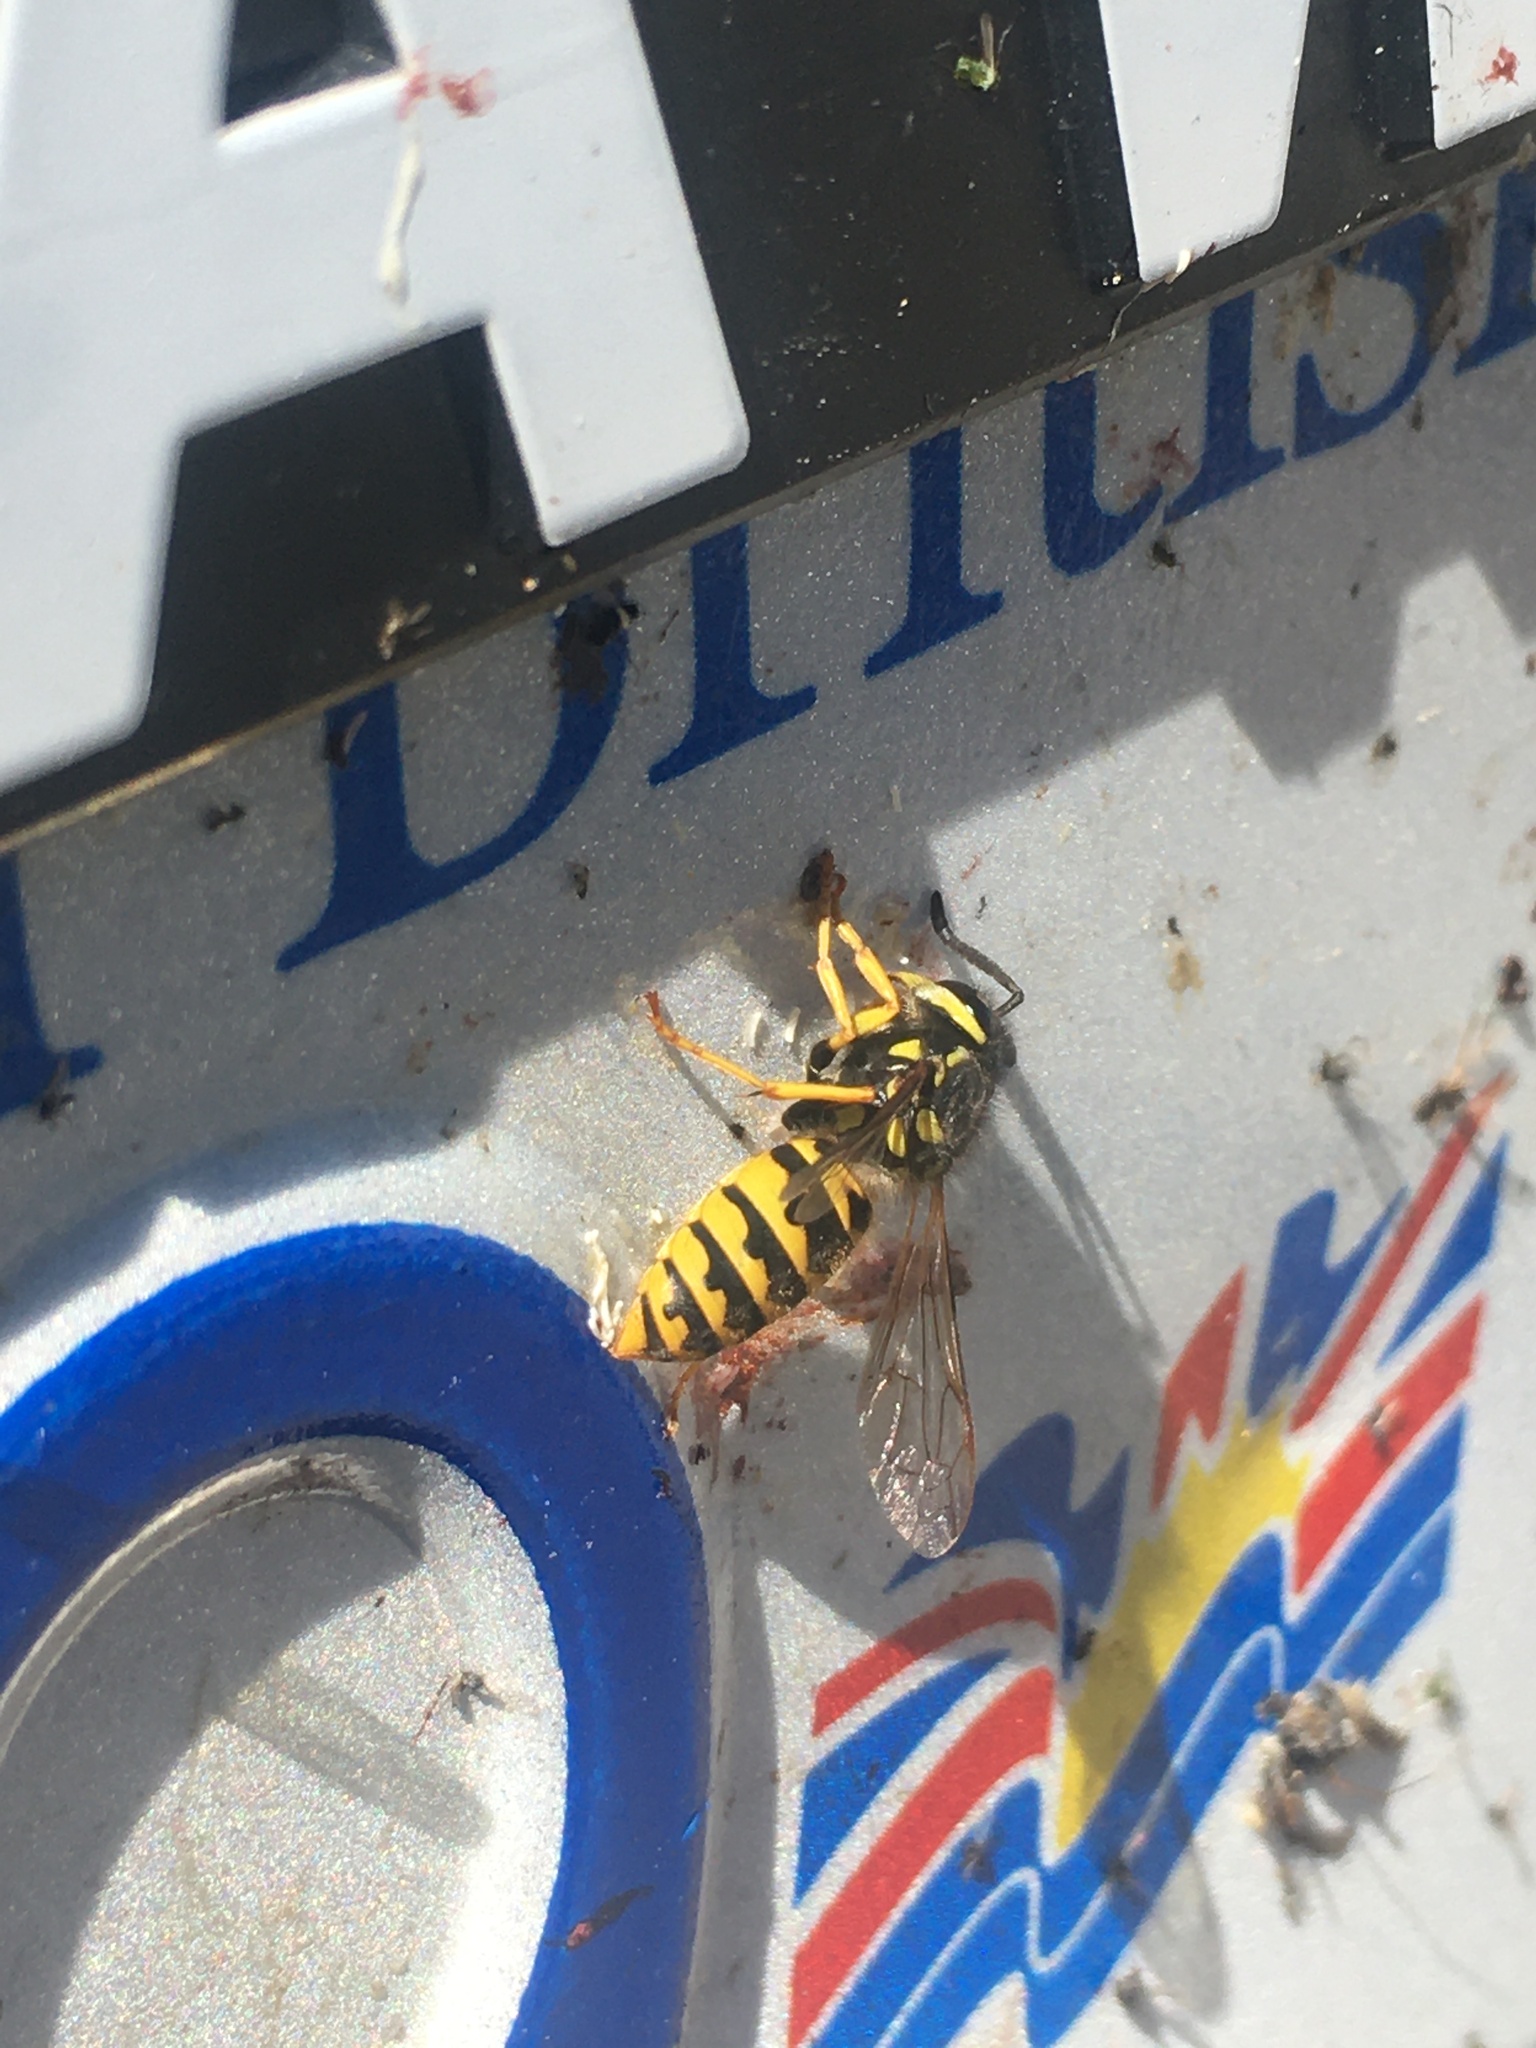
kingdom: Animalia
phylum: Arthropoda
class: Insecta
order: Hymenoptera
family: Vespidae
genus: Vespula
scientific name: Vespula germanica
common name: German wasp
